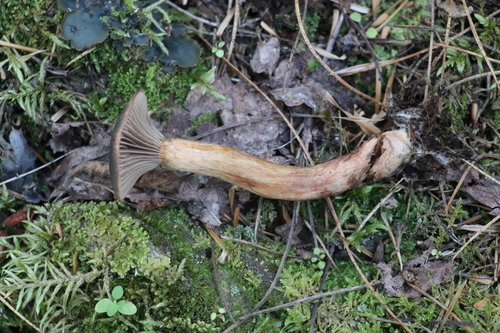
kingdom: Fungi
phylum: Basidiomycota
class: Agaricomycetes
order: Boletales
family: Gomphidiaceae
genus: Chroogomphus
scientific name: Chroogomphus rutilus
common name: Copper spike
